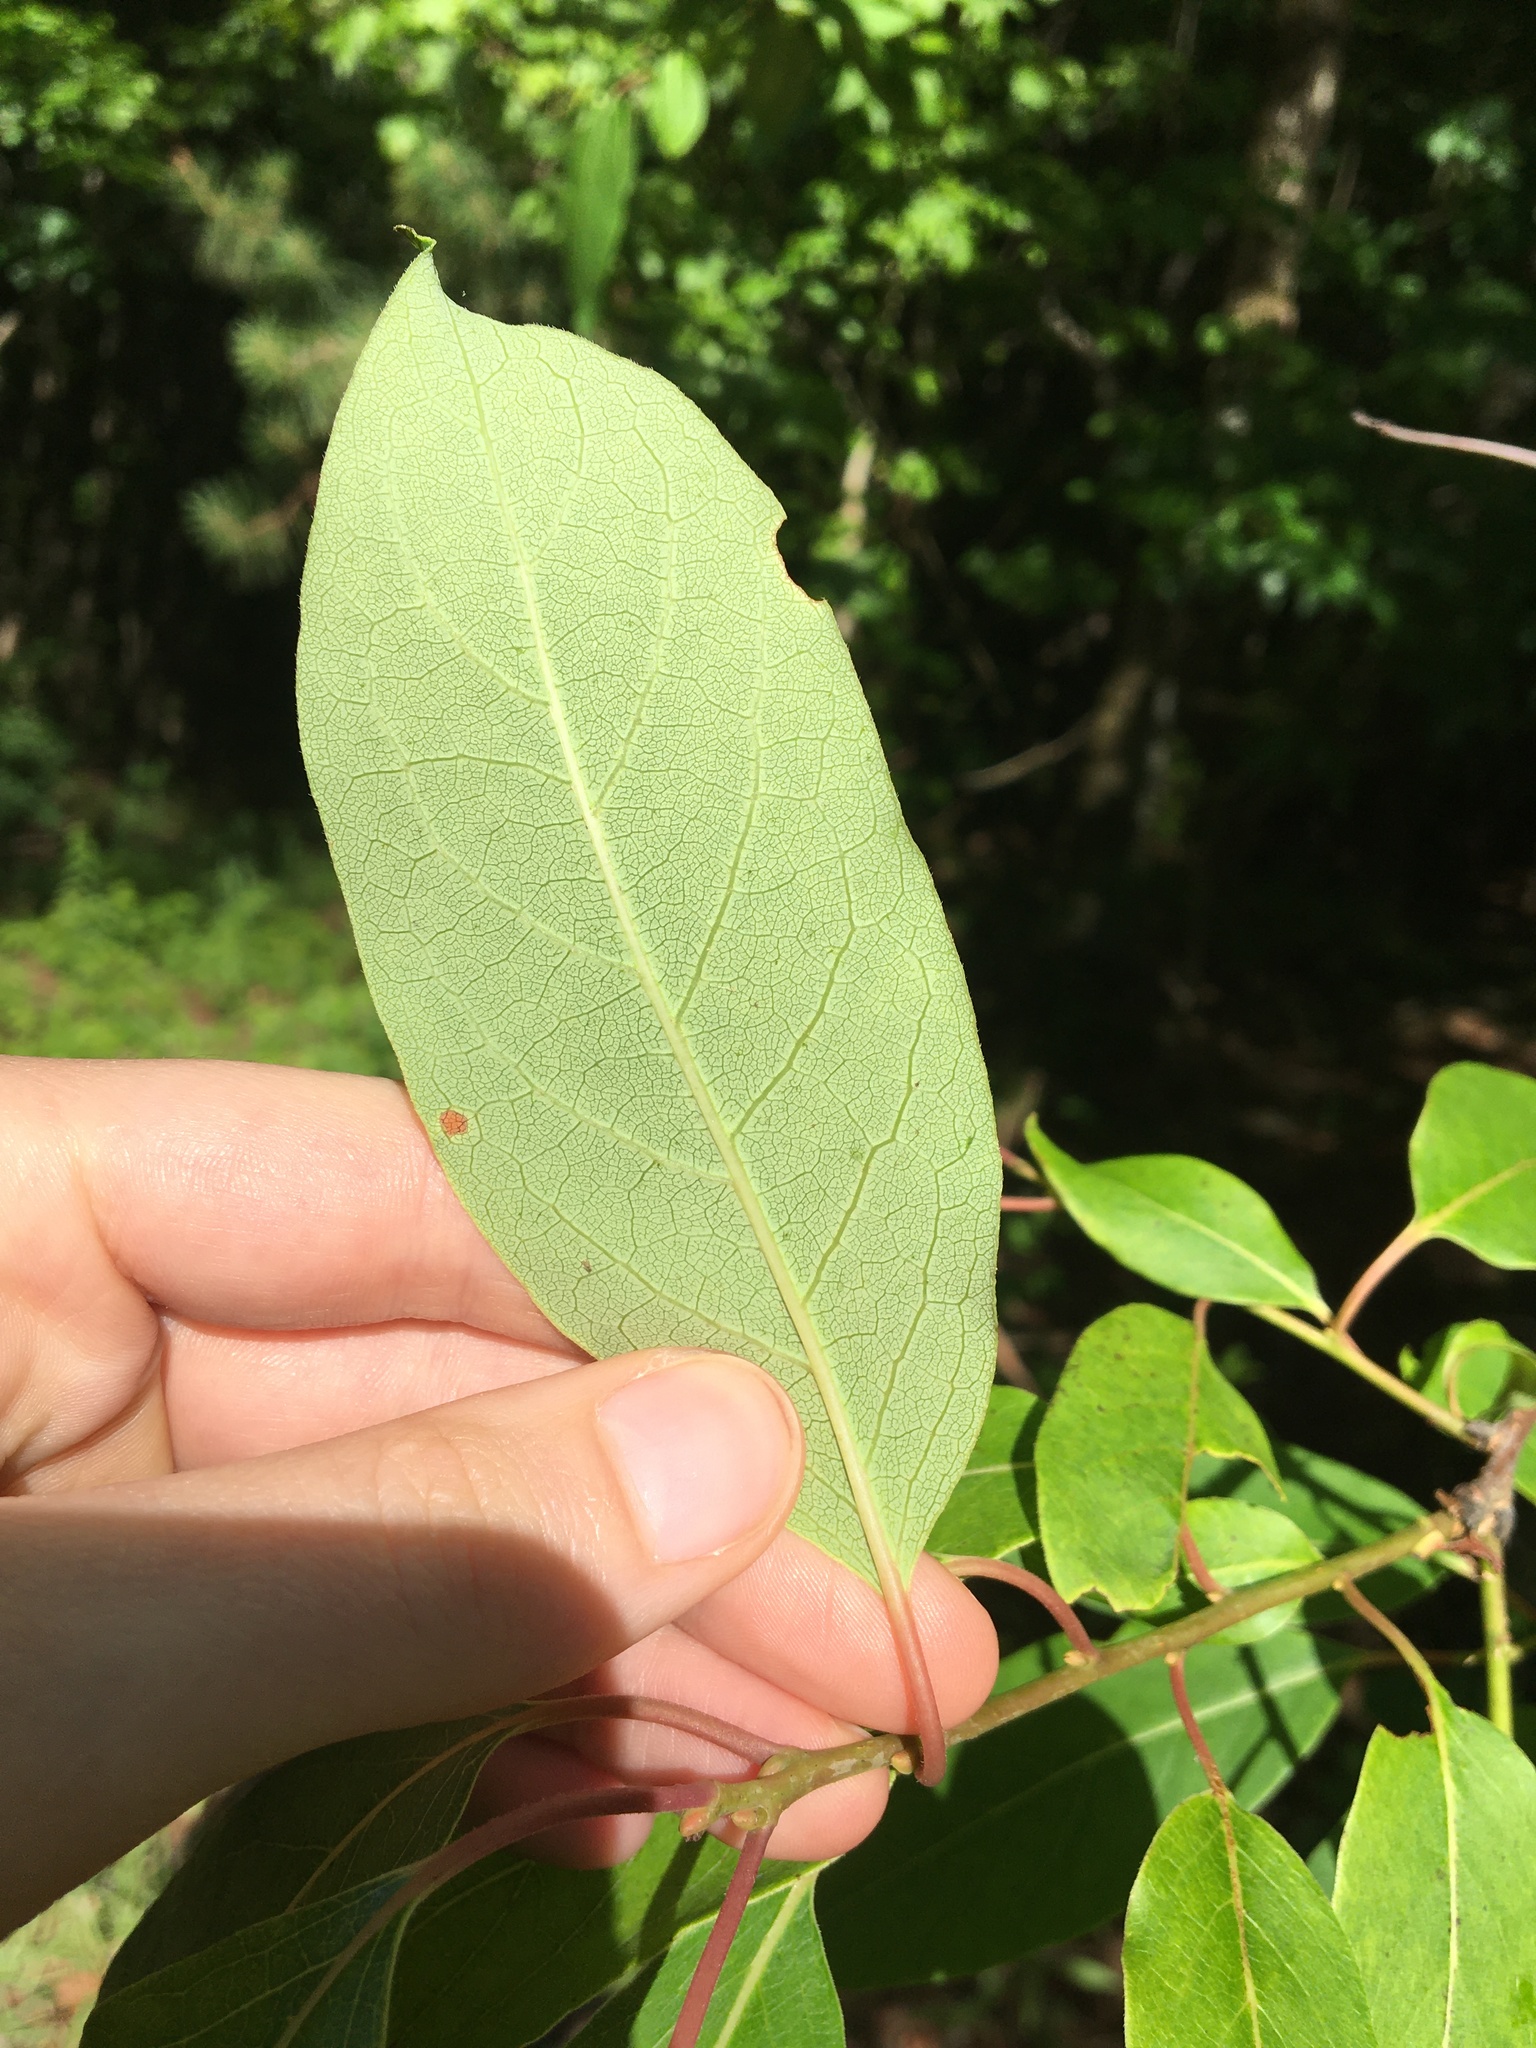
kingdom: Plantae
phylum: Tracheophyta
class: Magnoliopsida
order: Ericales
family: Ebenaceae
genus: Diospyros
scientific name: Diospyros virginiana
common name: Persimmon
